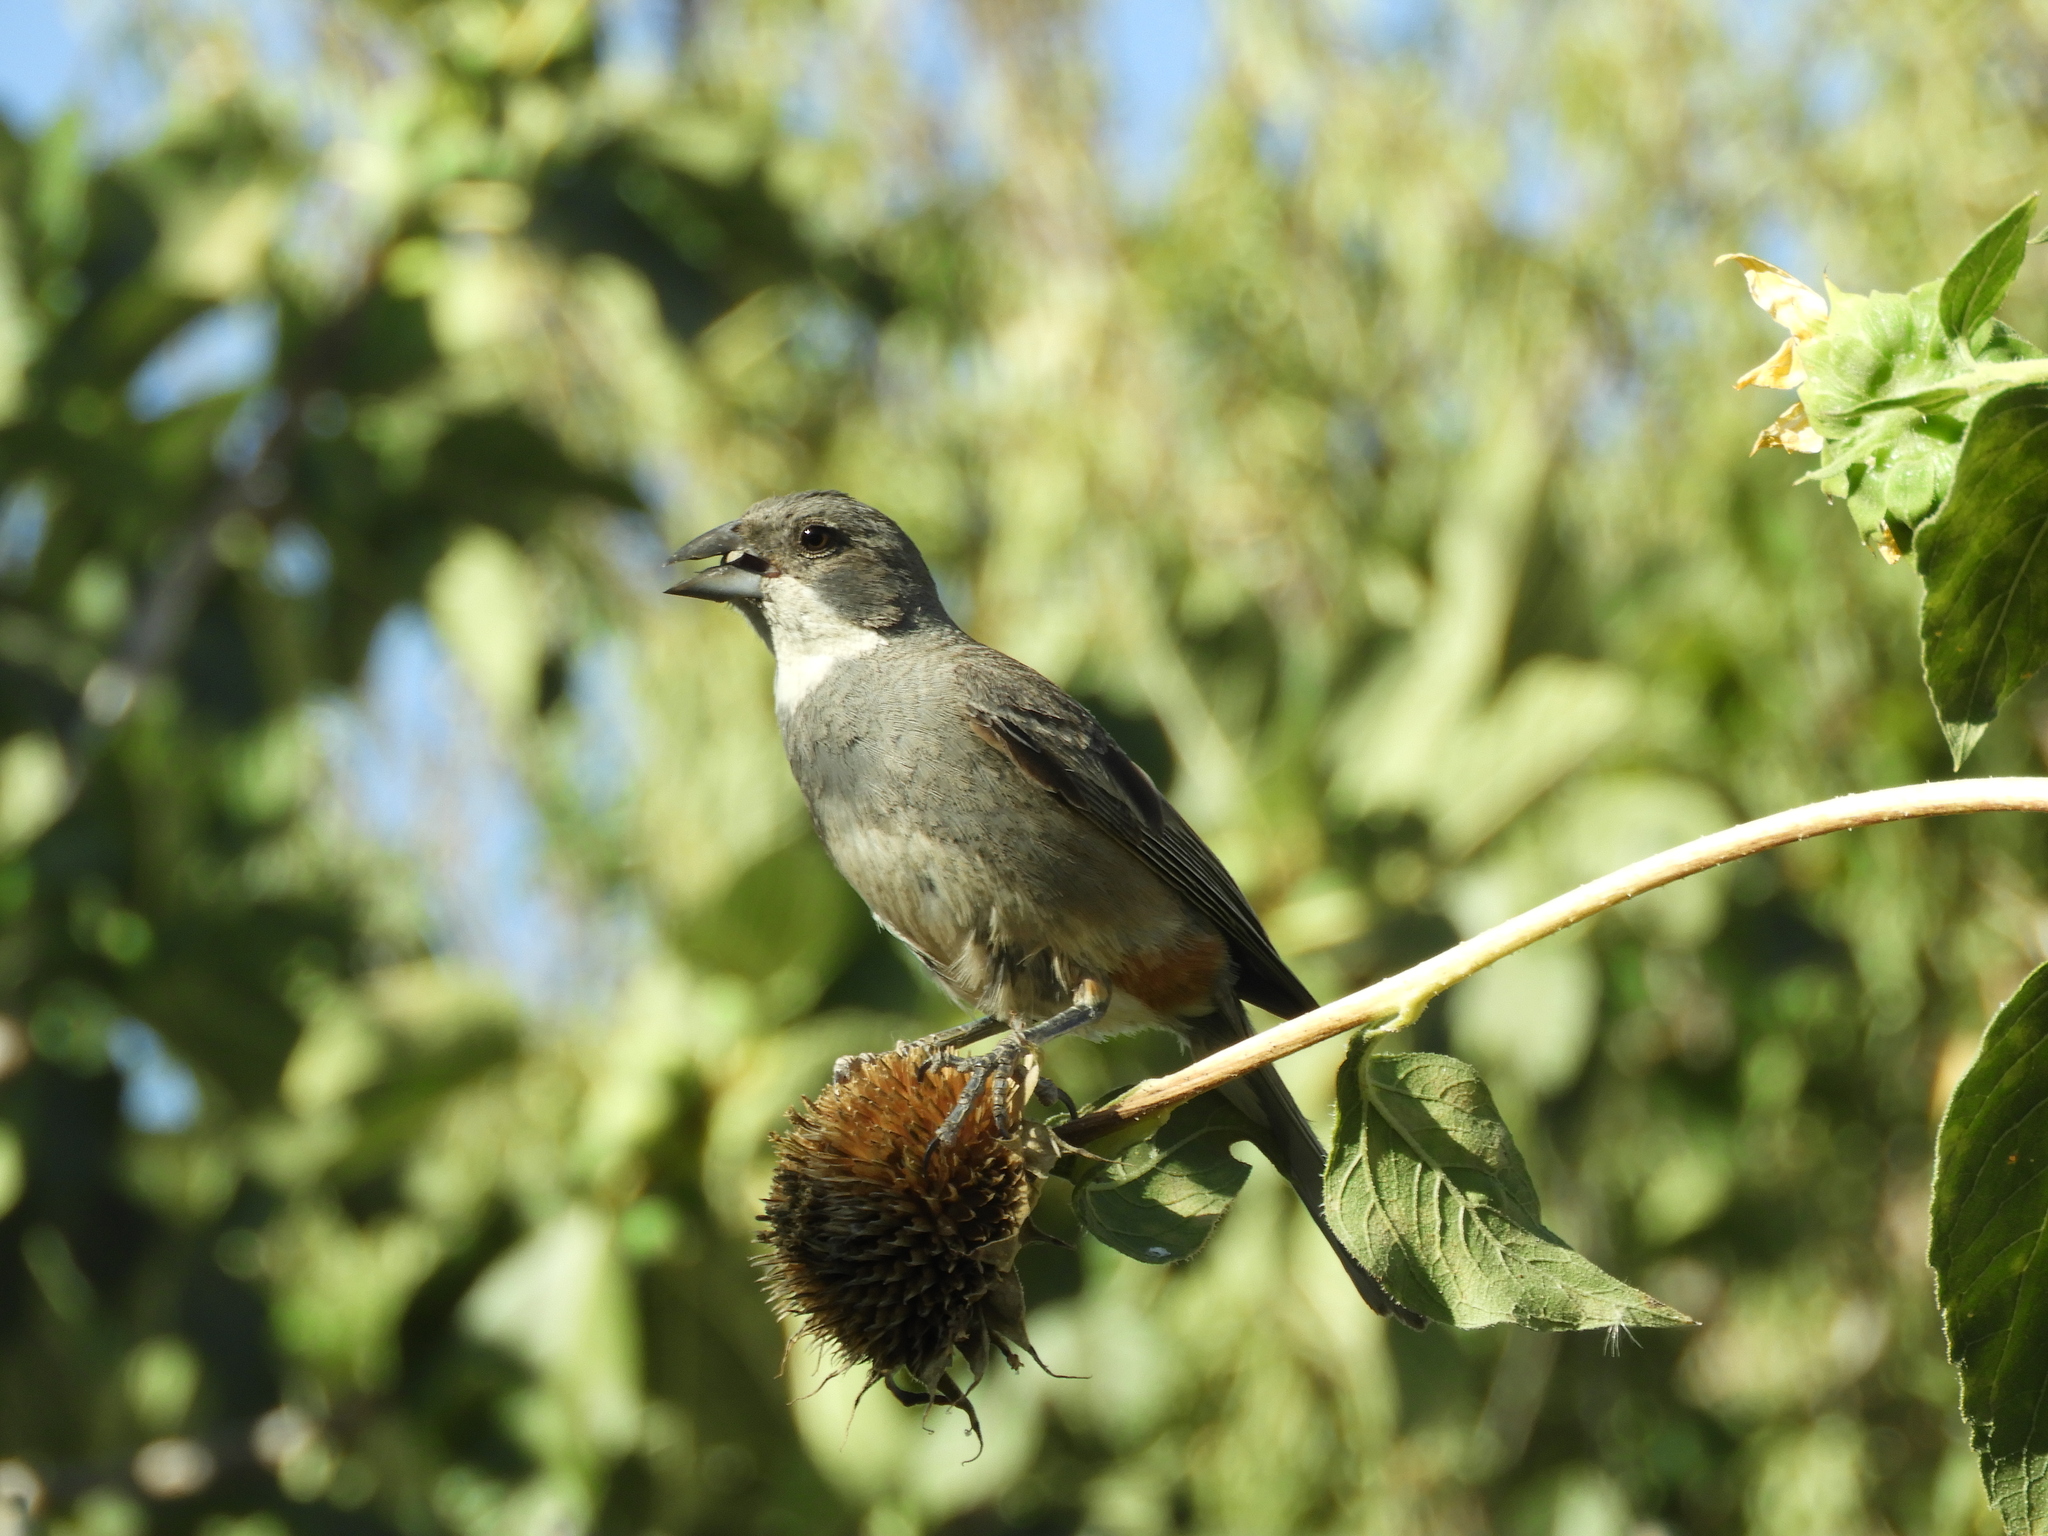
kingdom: Animalia
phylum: Chordata
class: Aves
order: Passeriformes
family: Thraupidae
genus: Diuca
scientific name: Diuca diuca
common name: Common diuca finch
